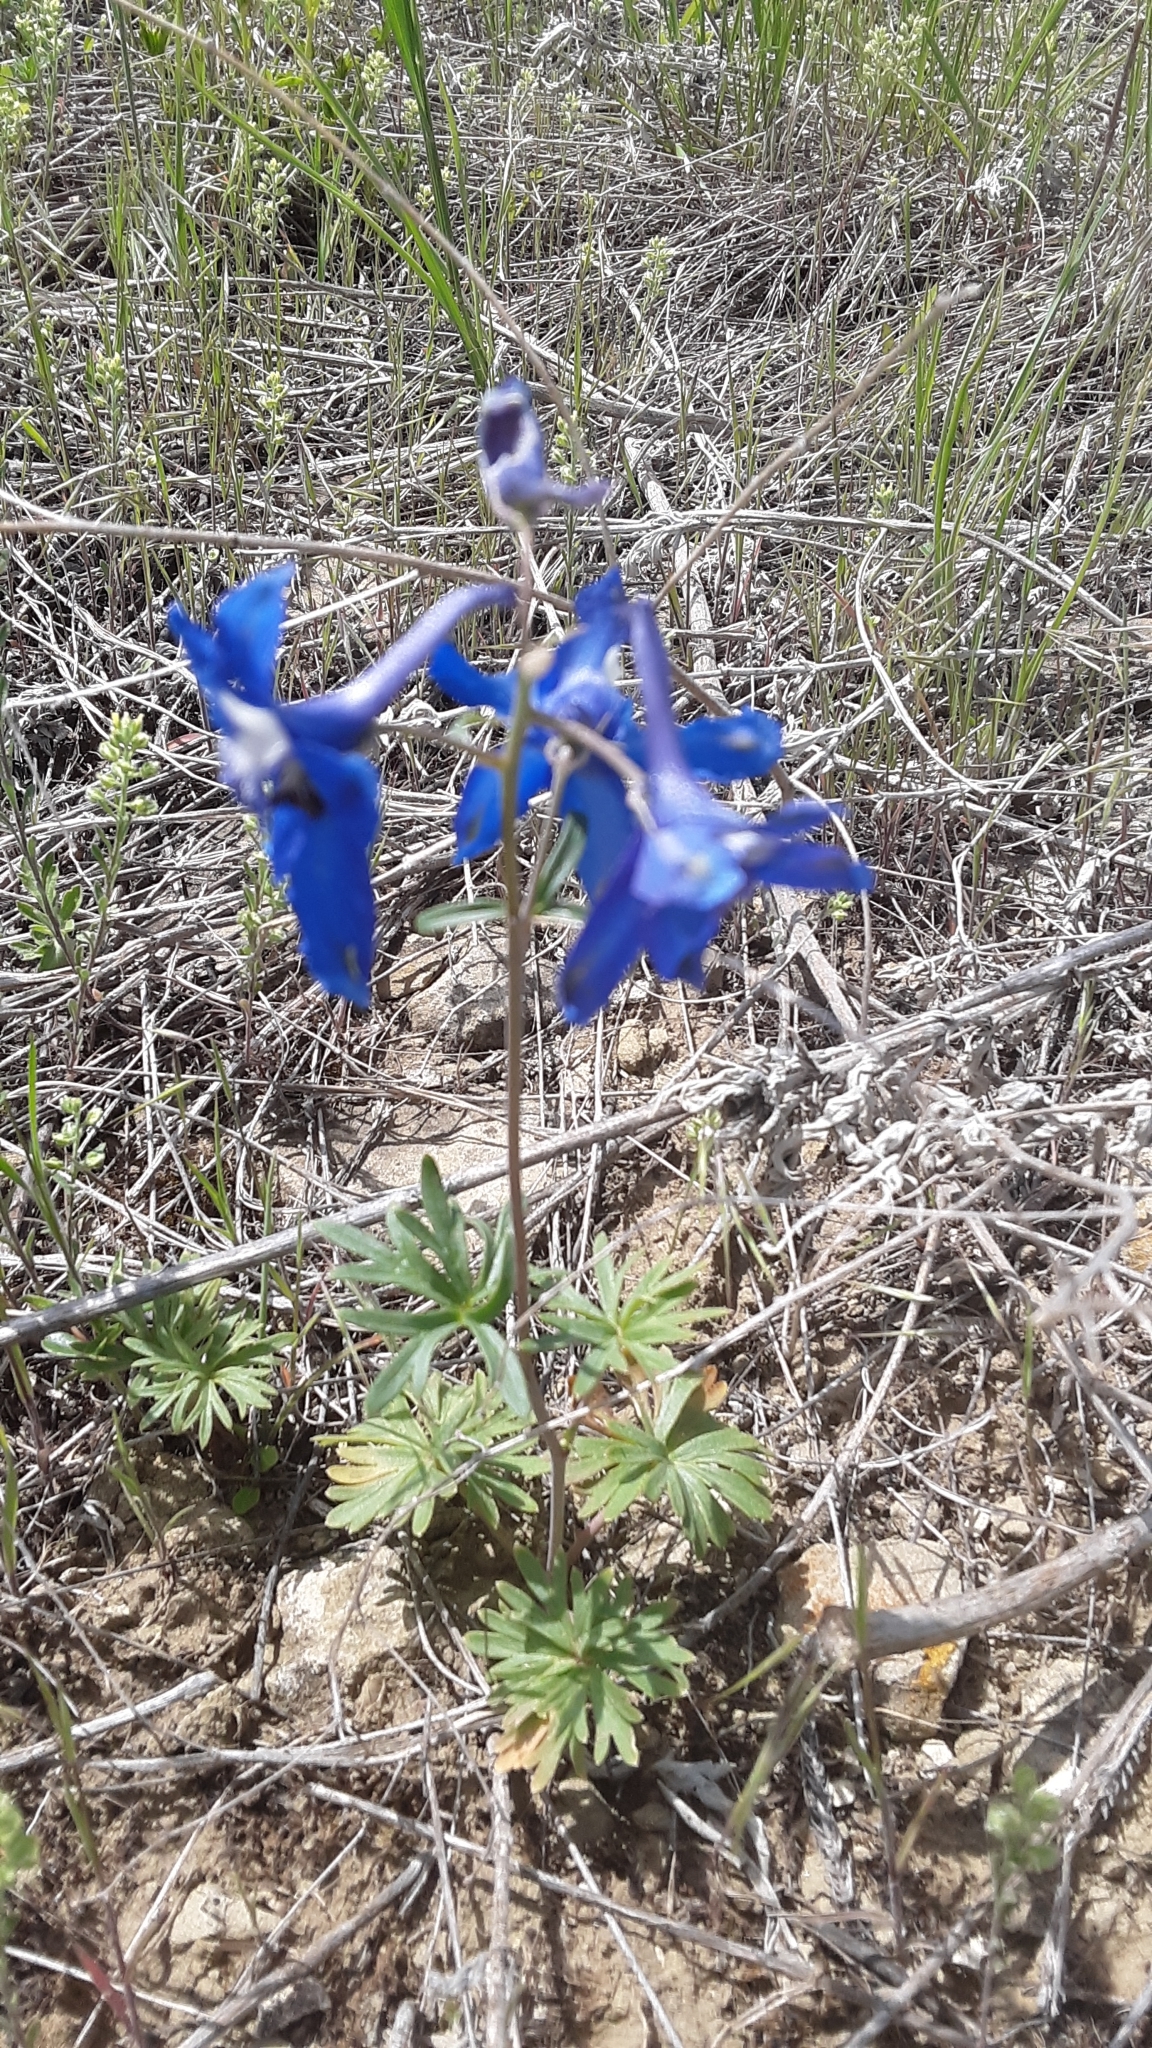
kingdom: Plantae
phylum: Tracheophyta
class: Magnoliopsida
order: Ranunculales
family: Ranunculaceae
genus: Delphinium
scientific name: Delphinium bicolor
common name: Low larkspur
